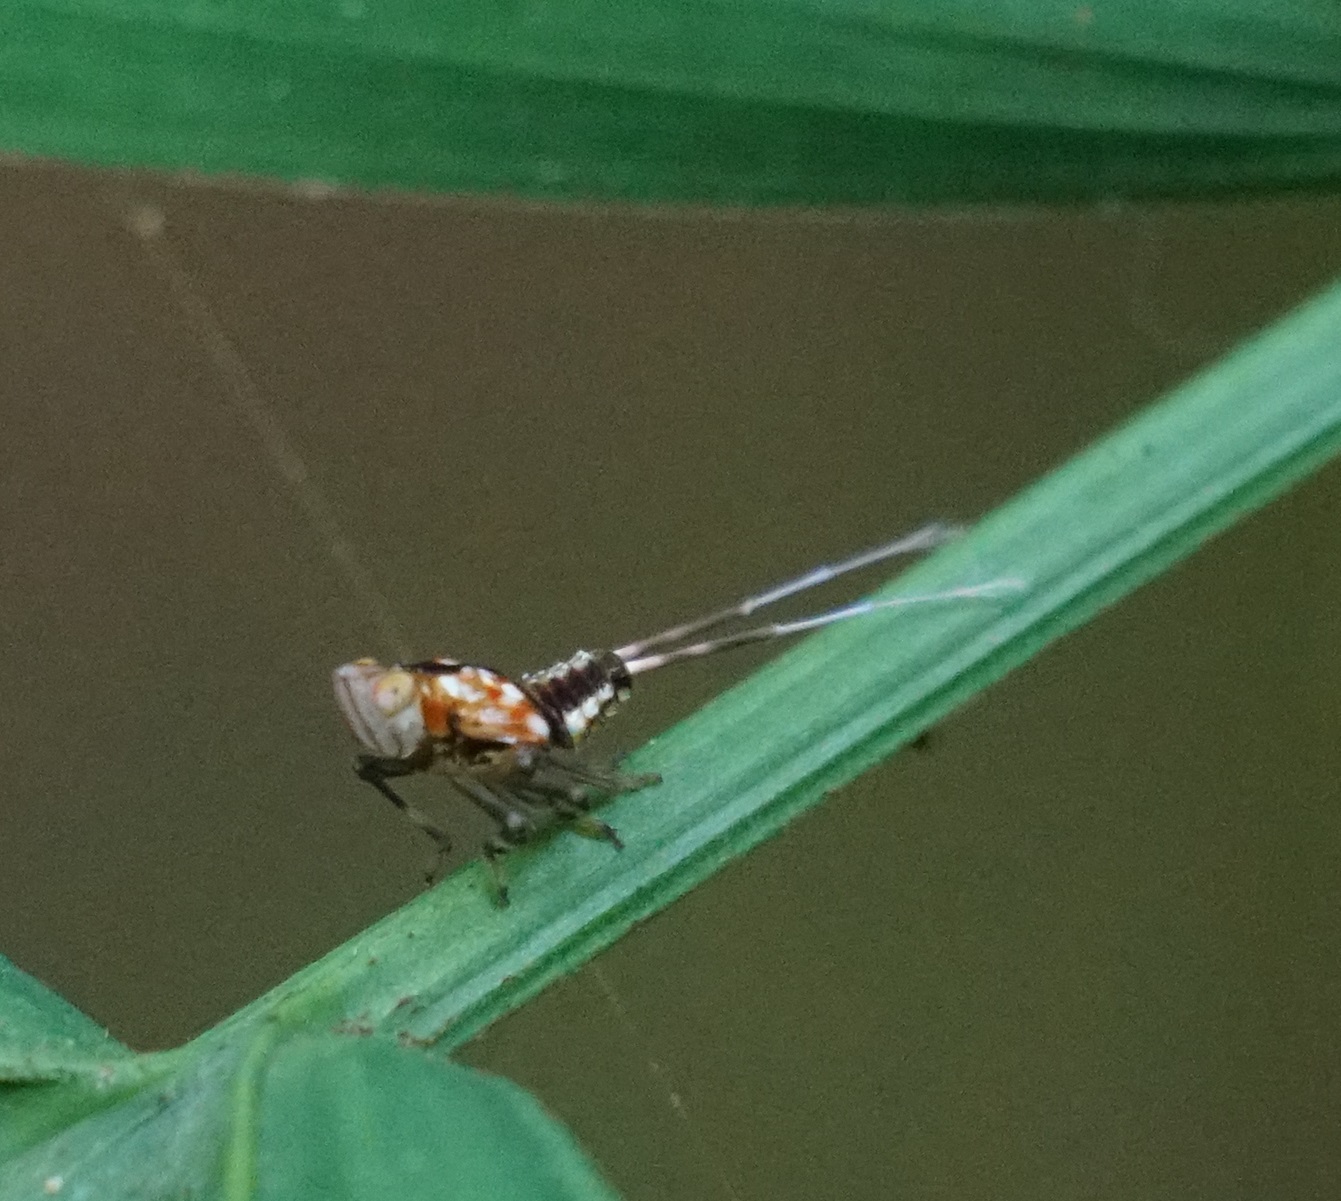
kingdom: Animalia
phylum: Arthropoda
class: Insecta
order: Hemiptera
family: Lophopidae
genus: Magia
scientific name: Magia subocellata
